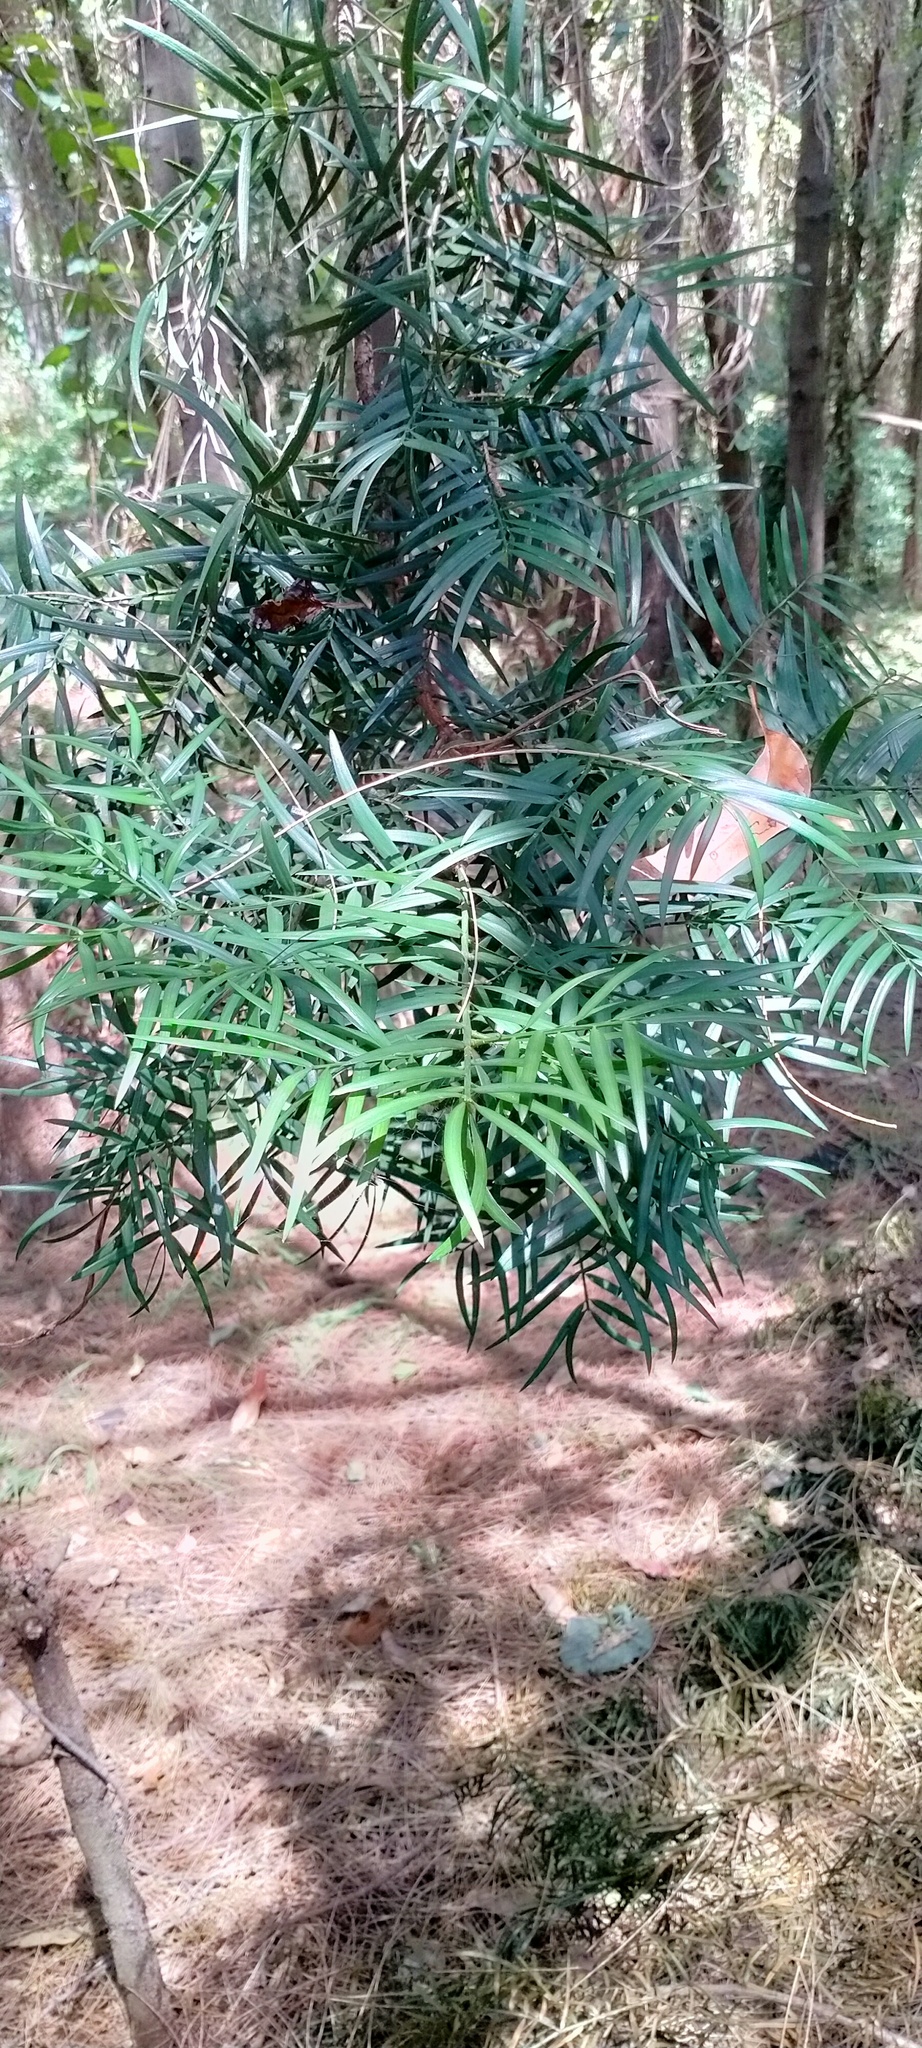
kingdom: Plantae
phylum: Tracheophyta
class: Pinopsida
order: Pinales
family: Podocarpaceae
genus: Afrocarpus
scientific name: Afrocarpus falcatus
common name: Bastard yellowwood
